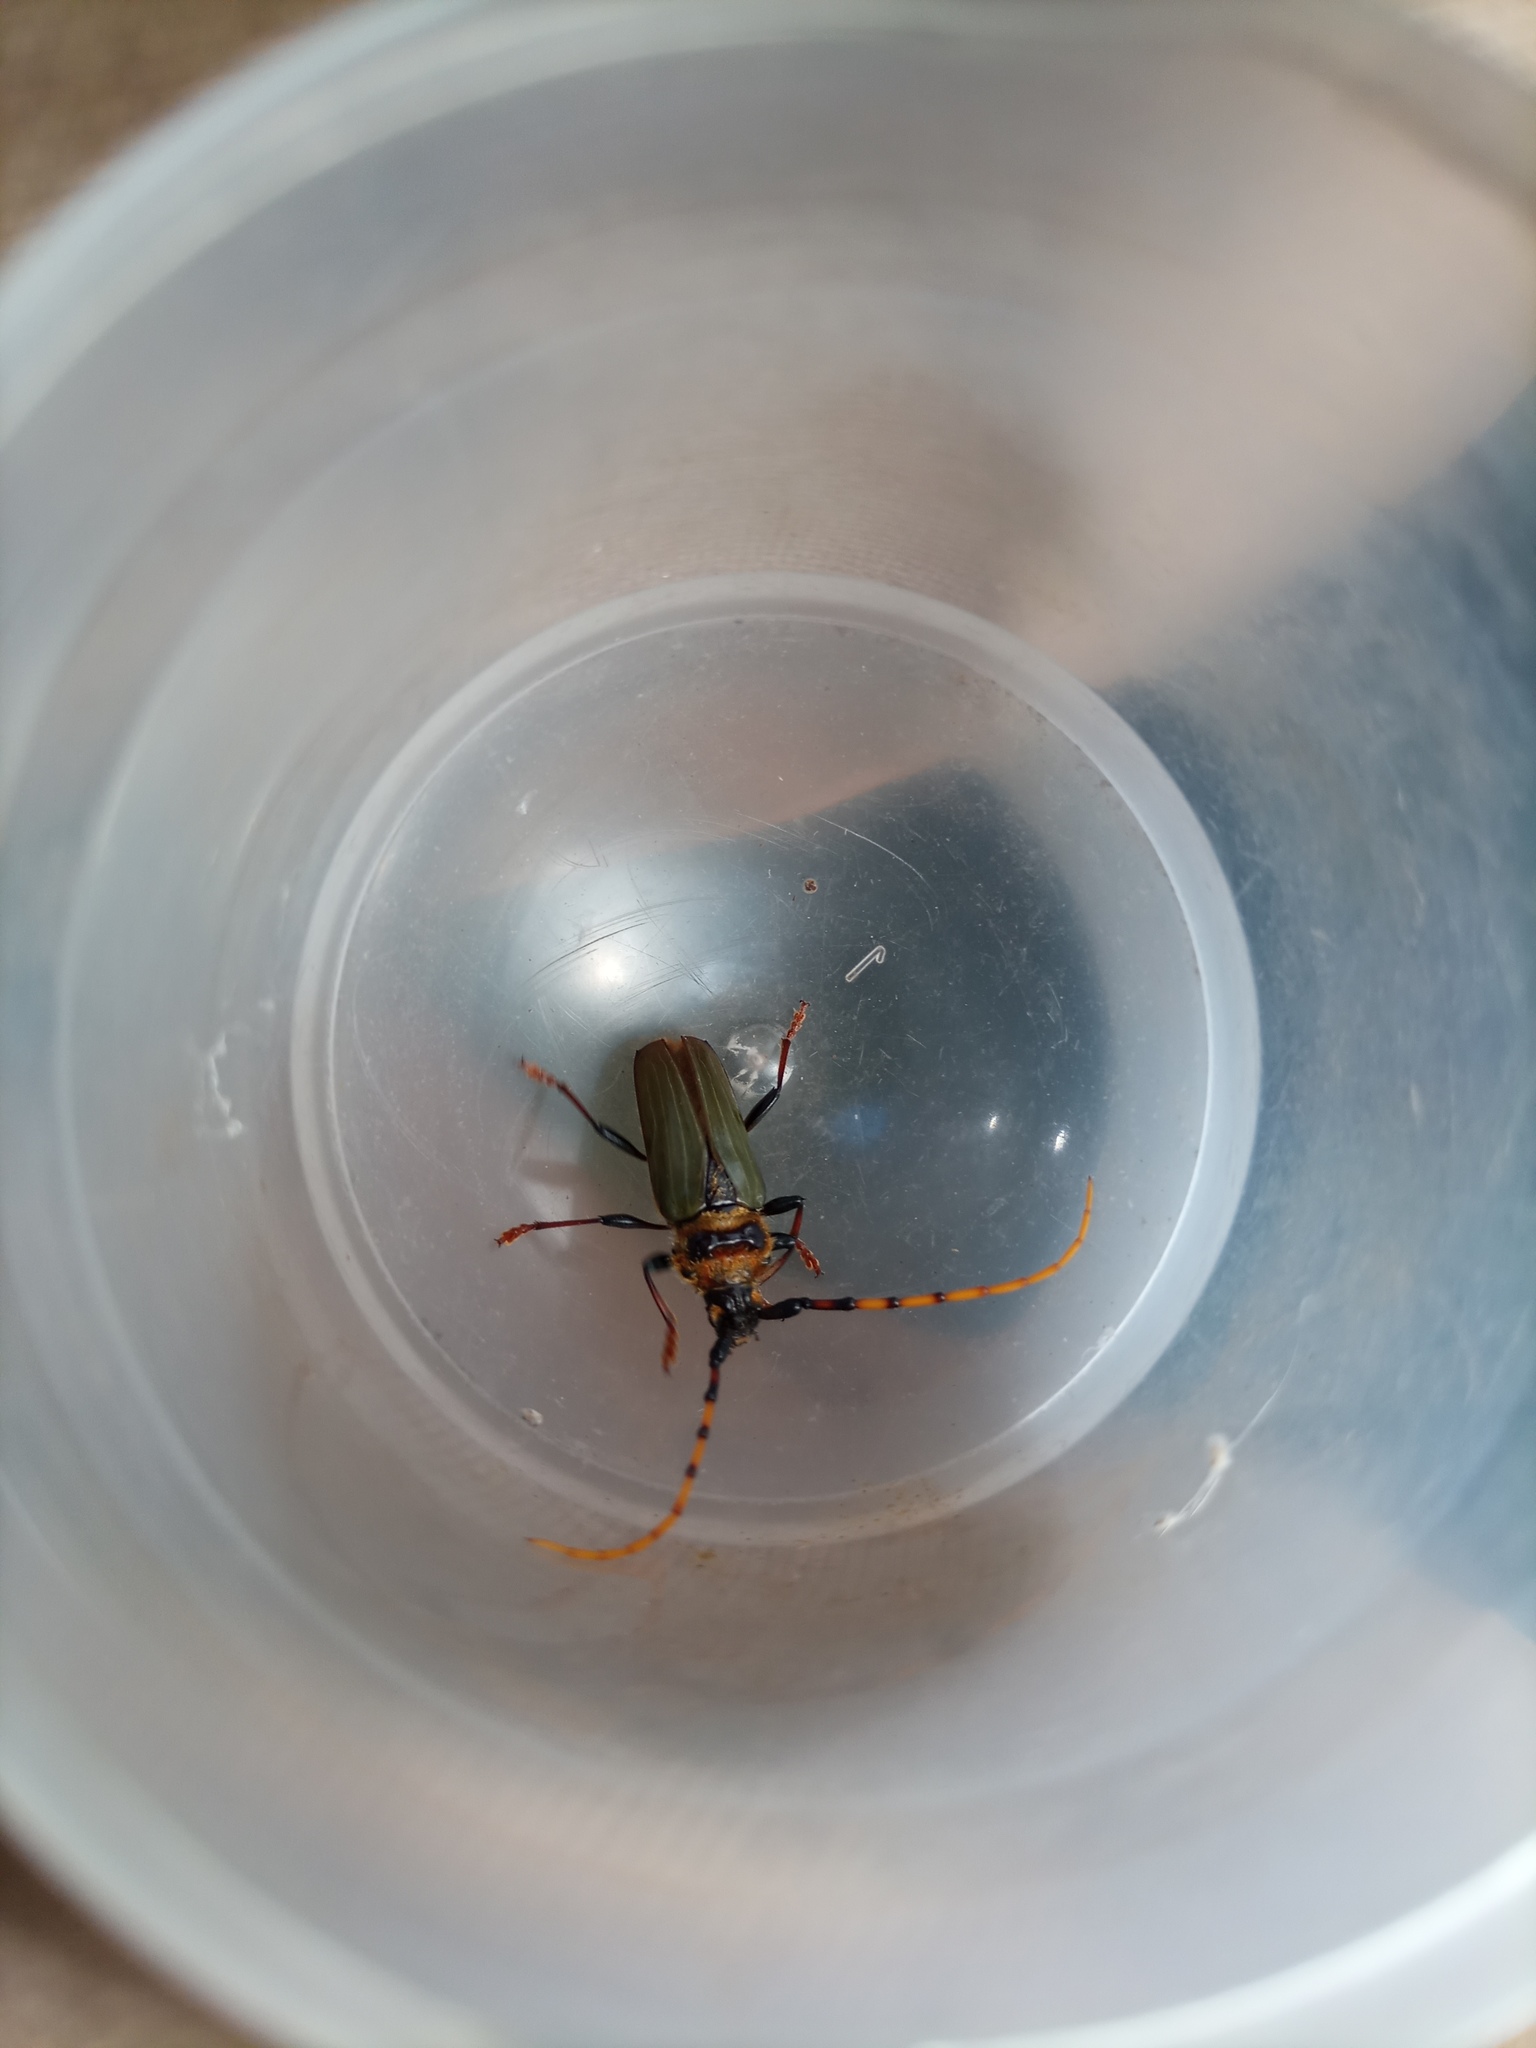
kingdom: Animalia
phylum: Arthropoda
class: Insecta
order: Coleoptera
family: Cerambycidae
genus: Retrachydes
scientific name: Retrachydes thoracicus
